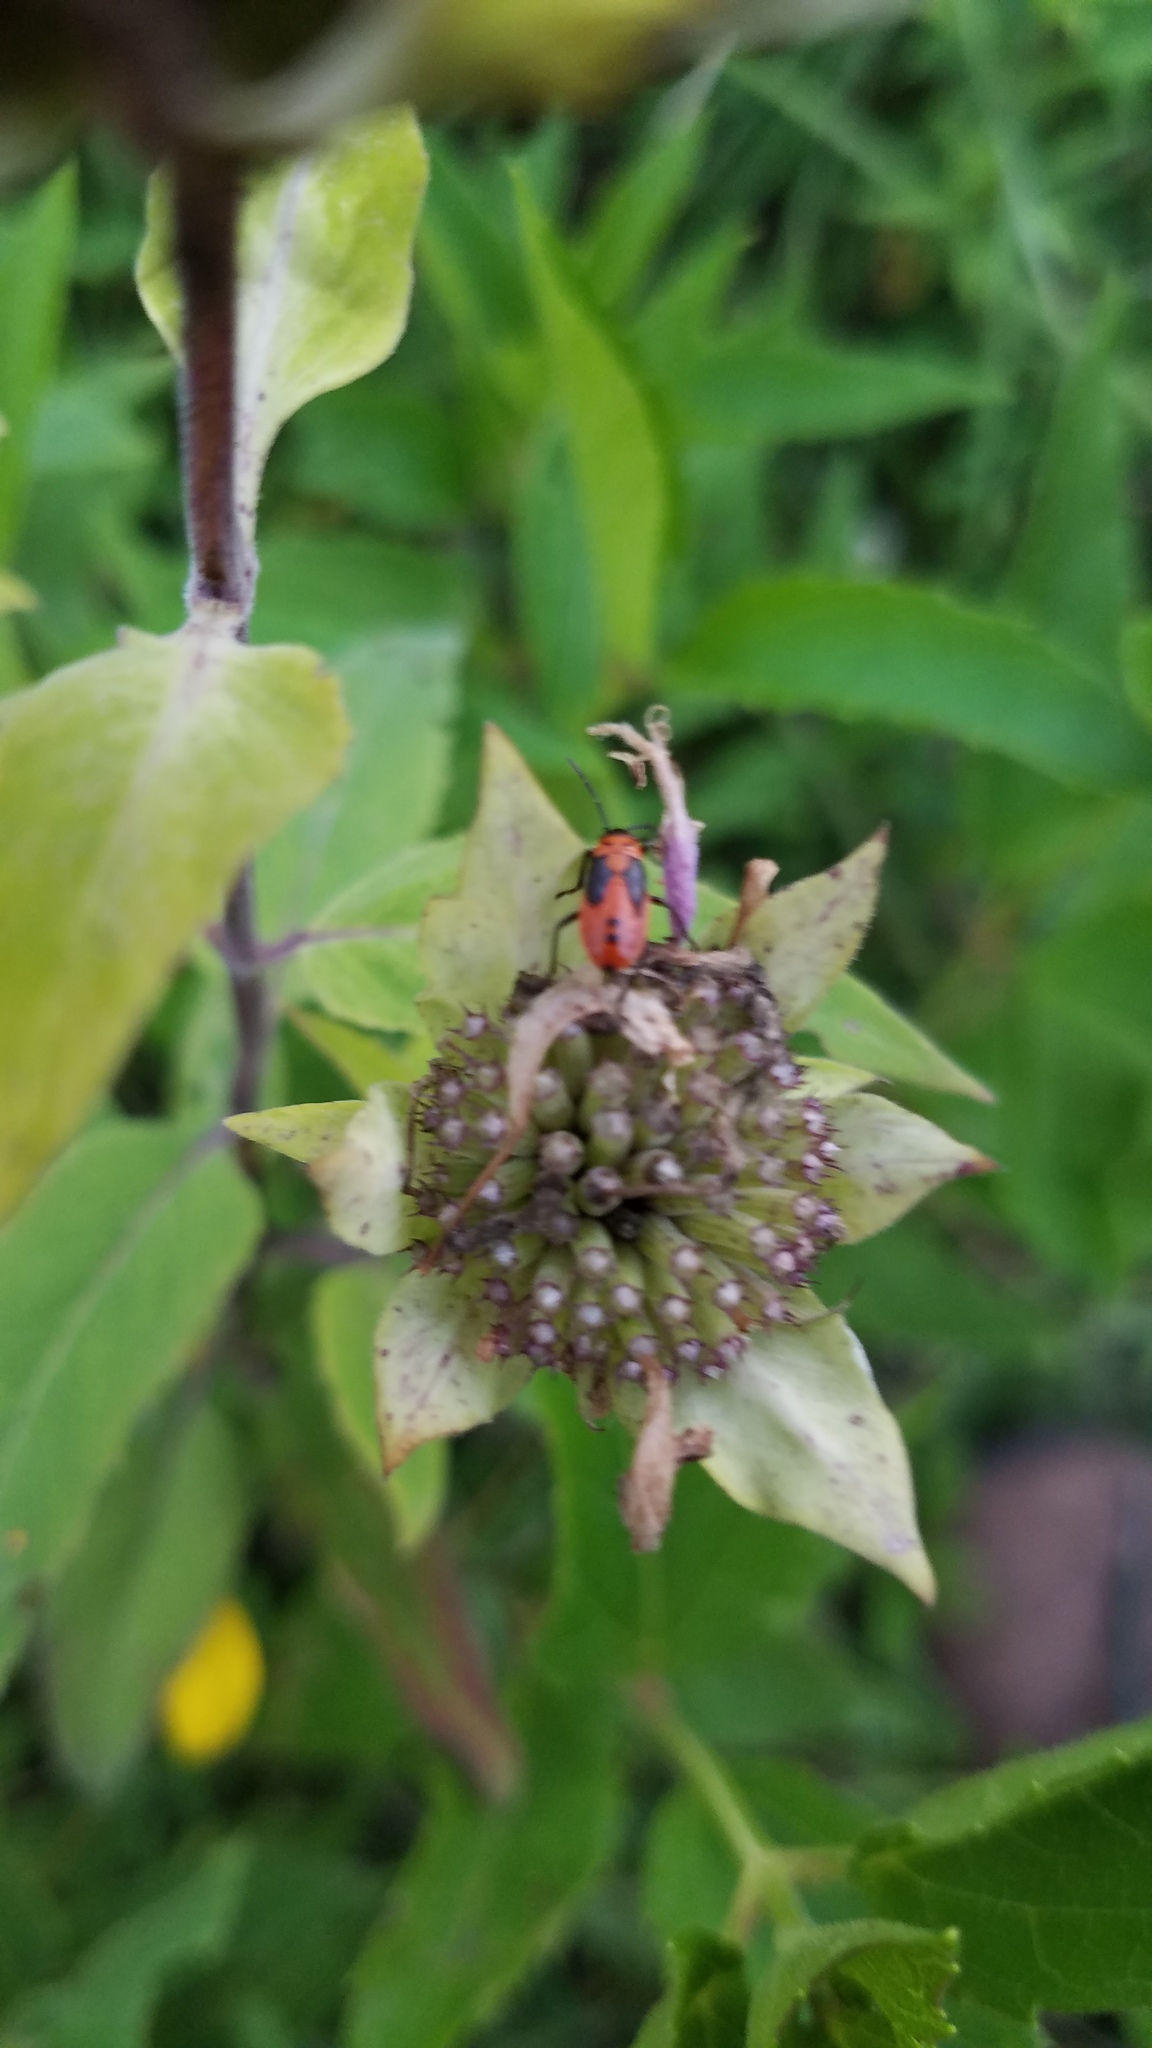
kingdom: Animalia
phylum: Arthropoda
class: Insecta
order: Hemiptera
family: Lygaeidae
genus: Lygaeus
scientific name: Lygaeus turcicus
